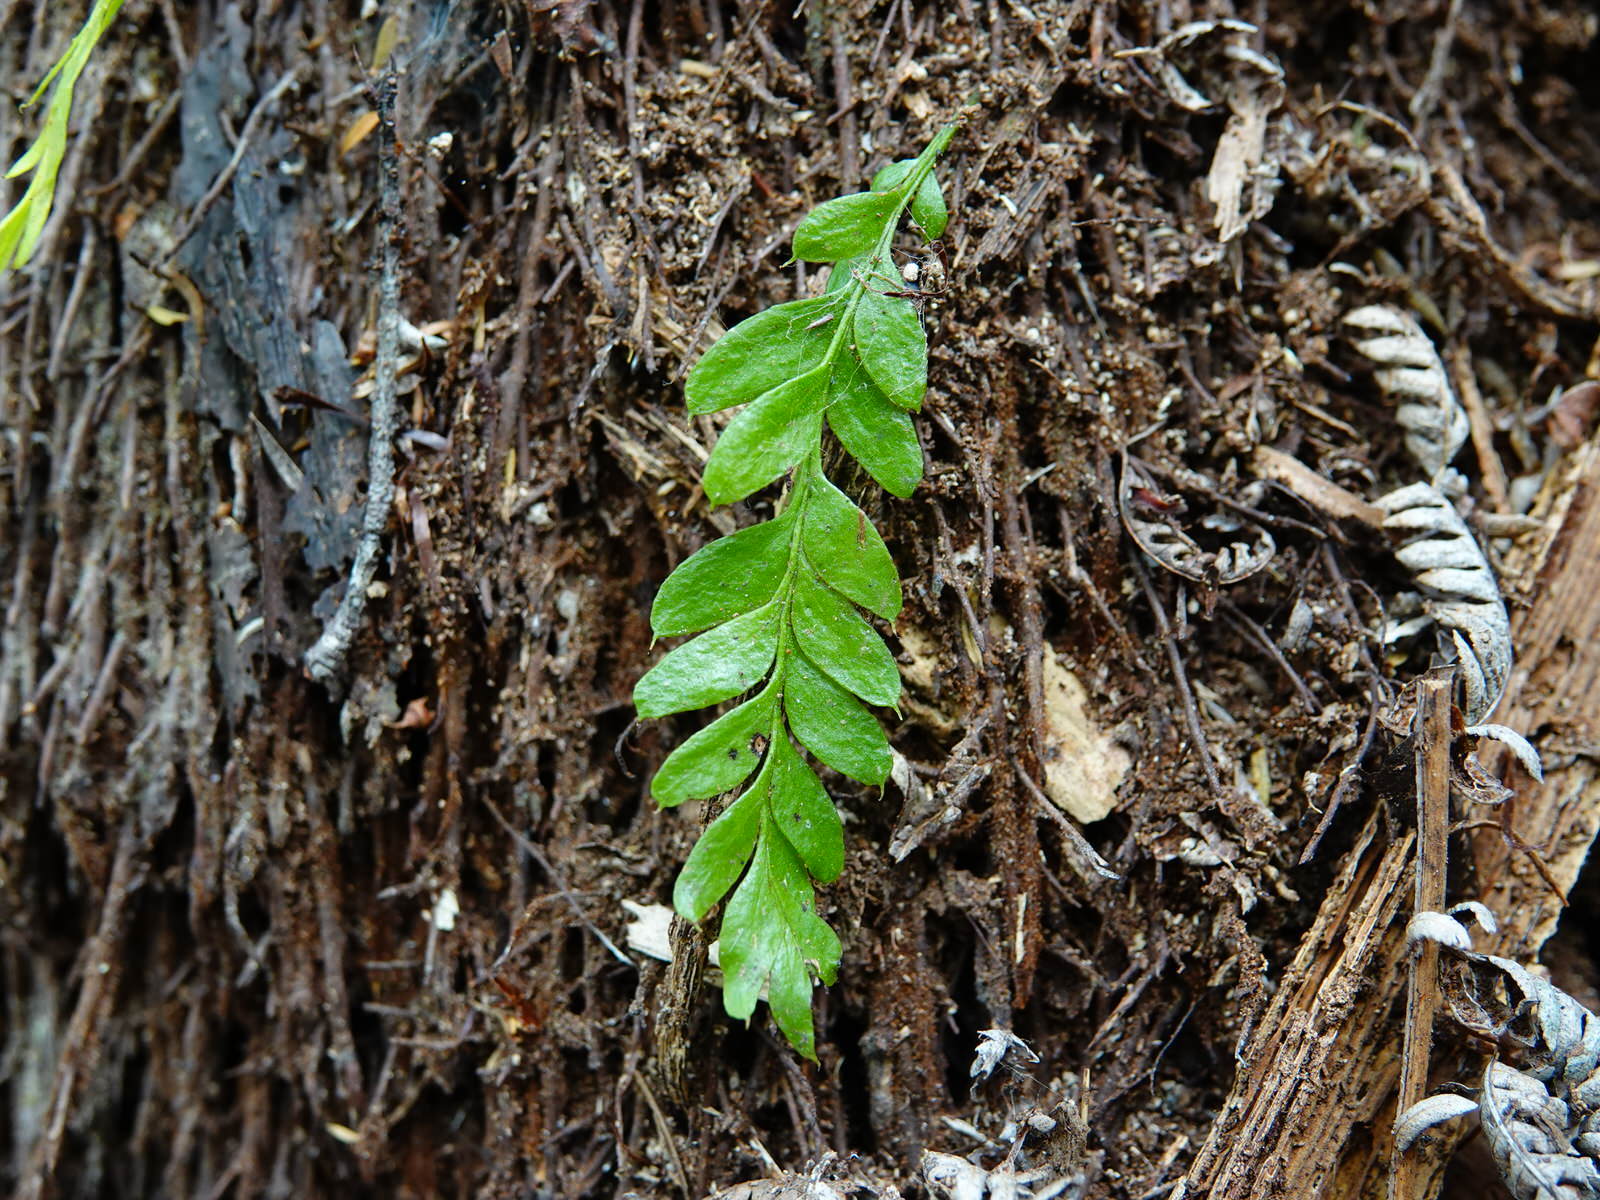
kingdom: Plantae
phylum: Tracheophyta
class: Polypodiopsida
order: Psilotales
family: Psilotaceae
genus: Tmesipteris
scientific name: Tmesipteris lanceolata
